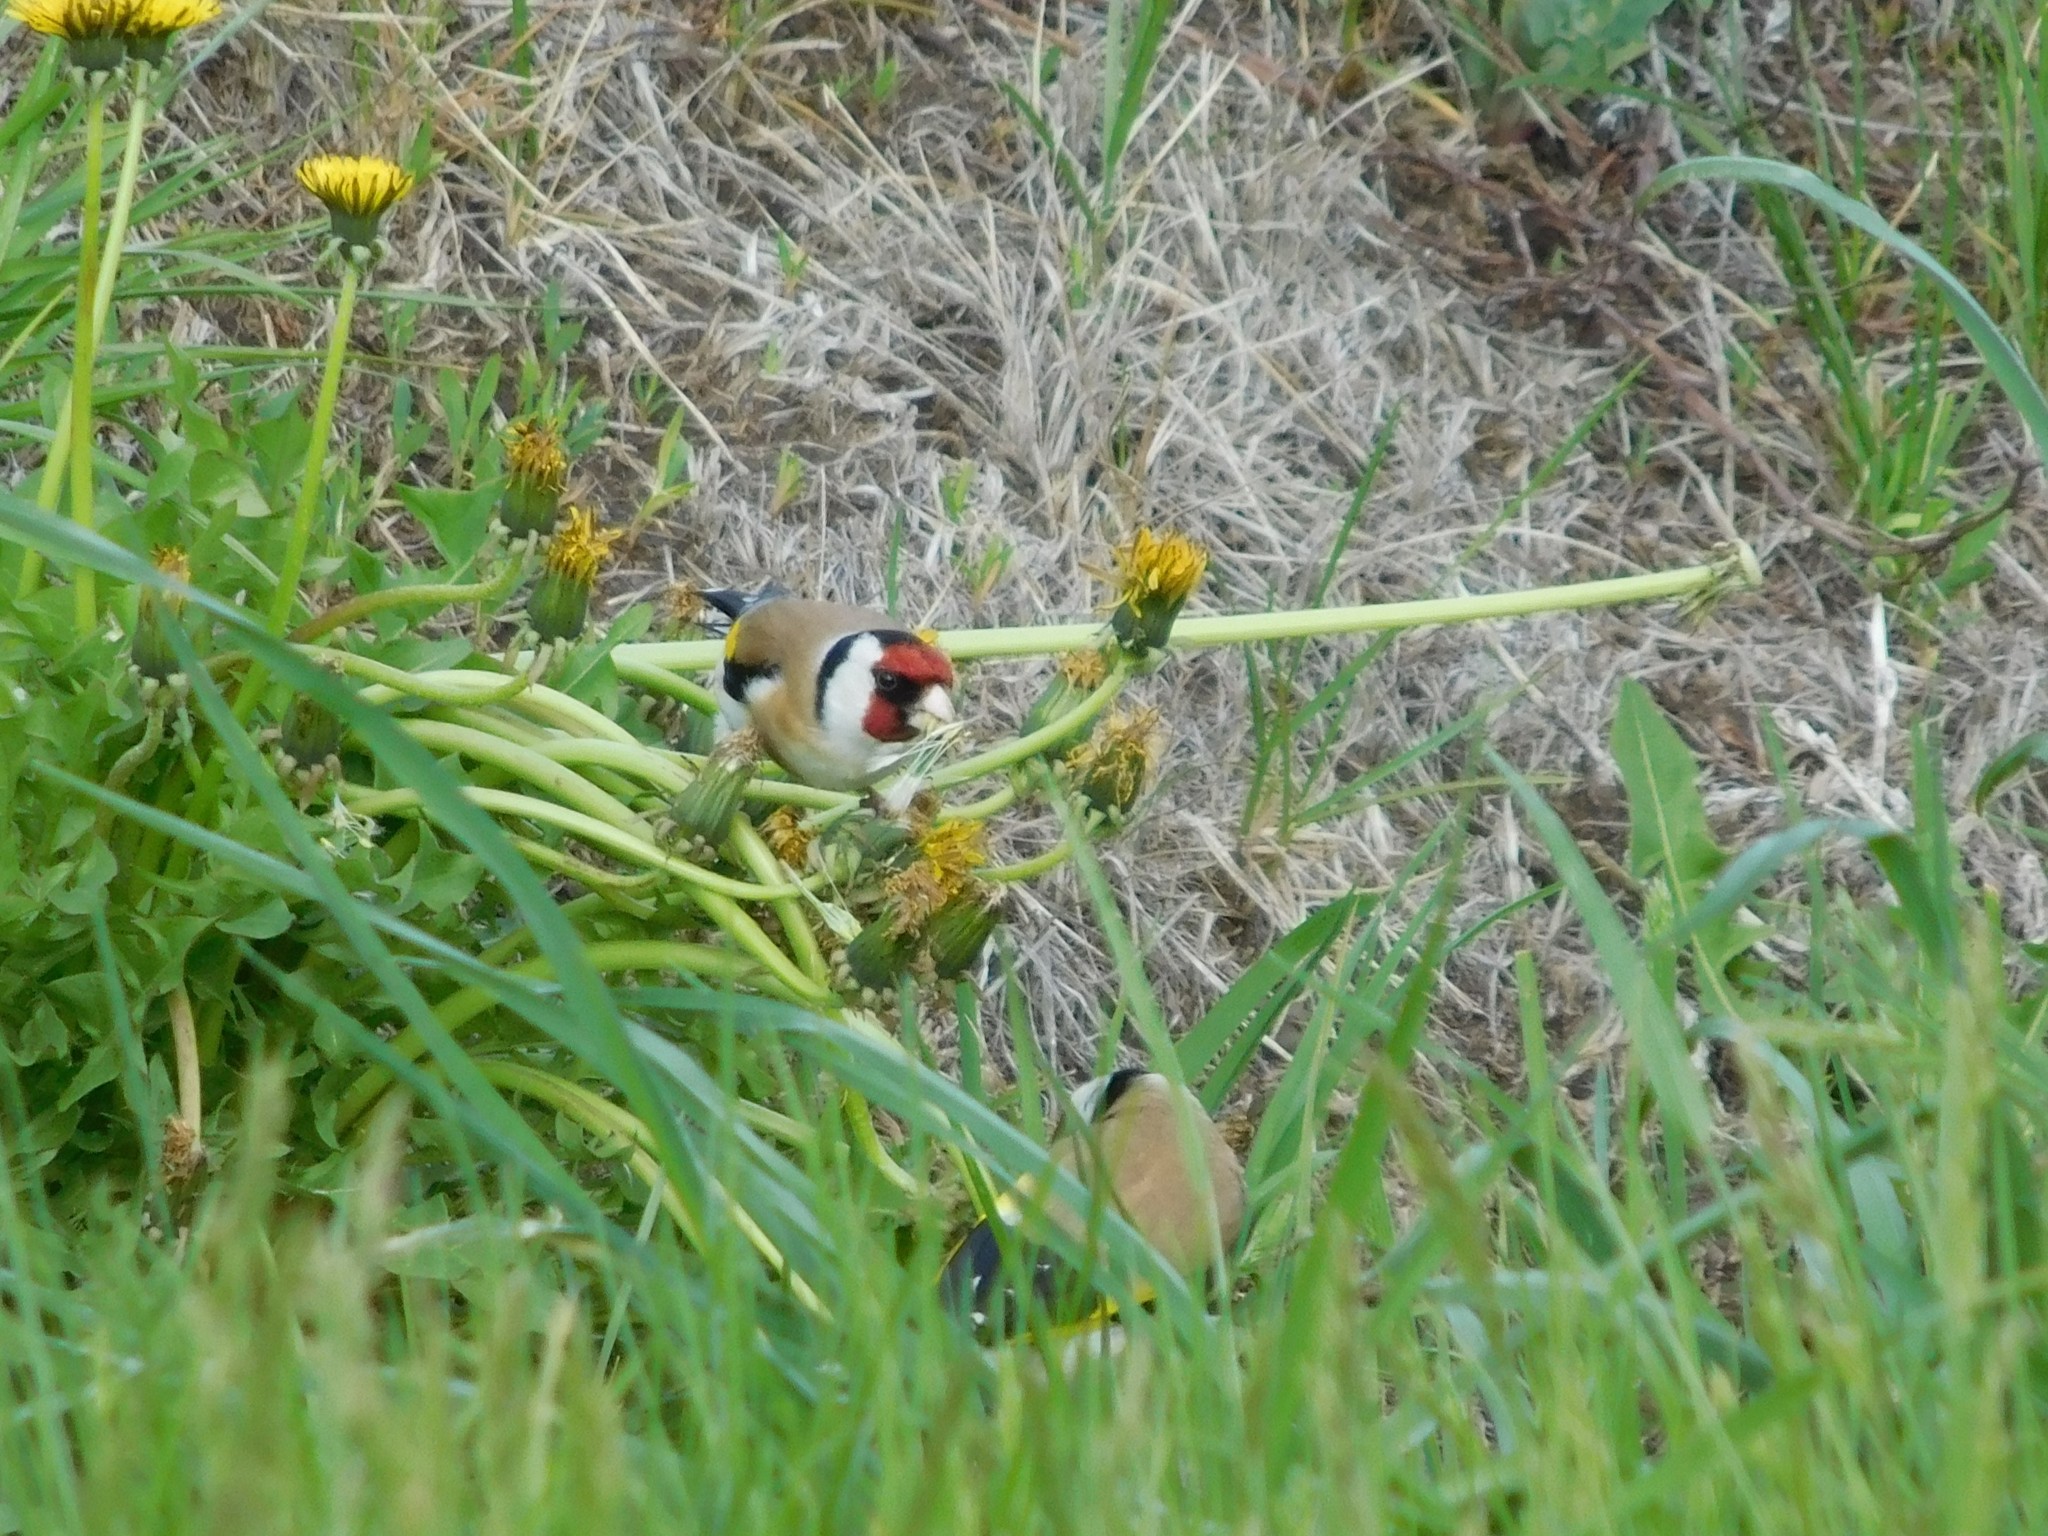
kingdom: Animalia
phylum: Chordata
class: Aves
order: Passeriformes
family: Fringillidae
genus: Carduelis
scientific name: Carduelis carduelis
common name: European goldfinch
